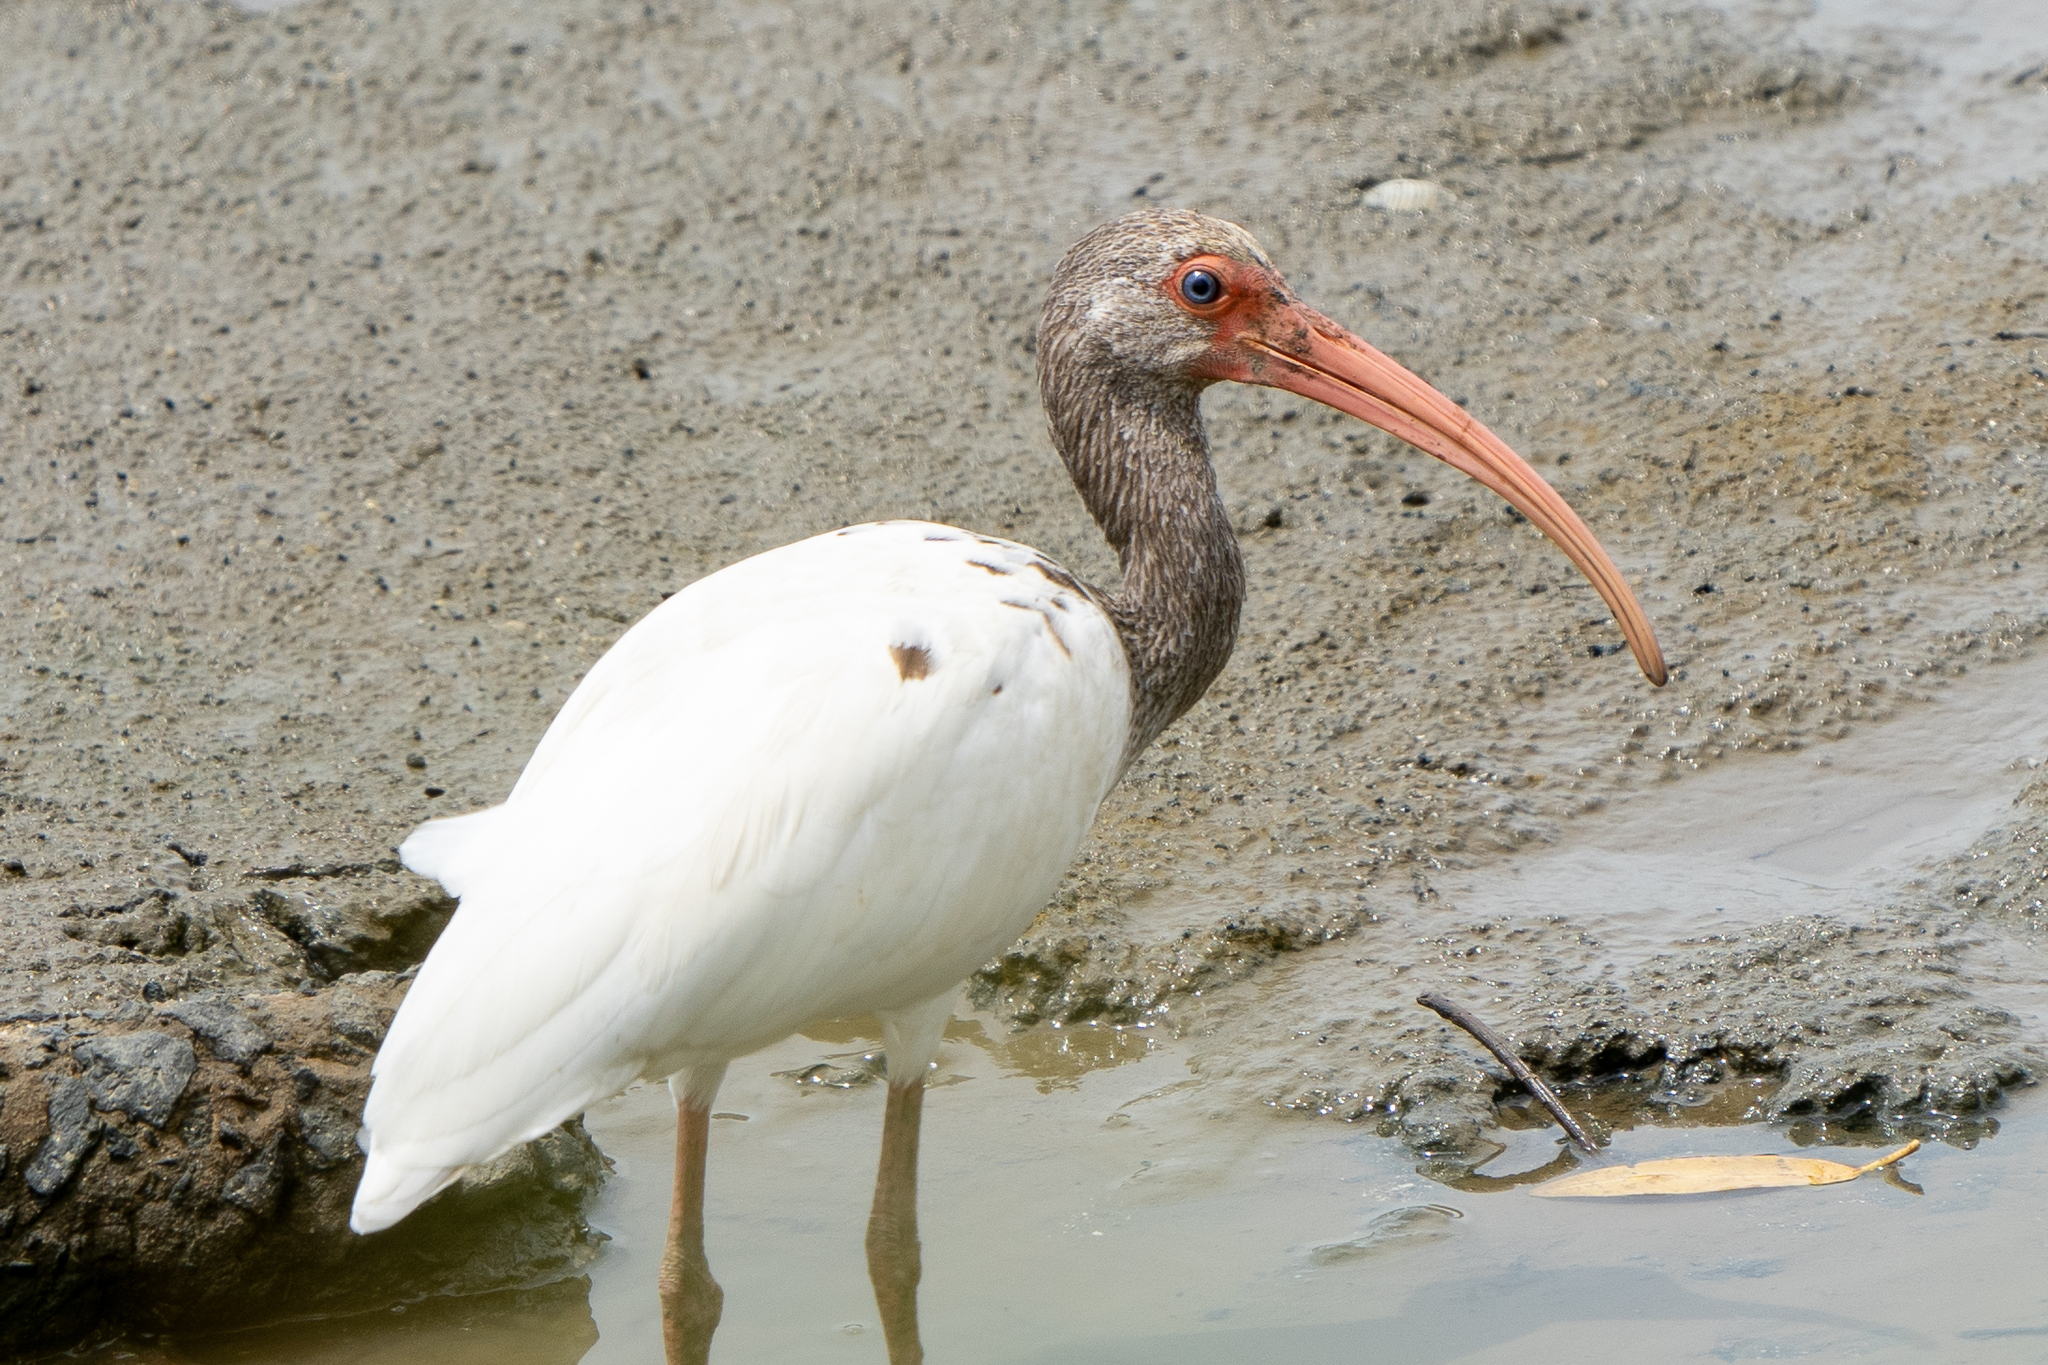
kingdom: Animalia
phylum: Chordata
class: Aves
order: Pelecaniformes
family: Threskiornithidae
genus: Eudocimus
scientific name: Eudocimus albus
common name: White ibis
